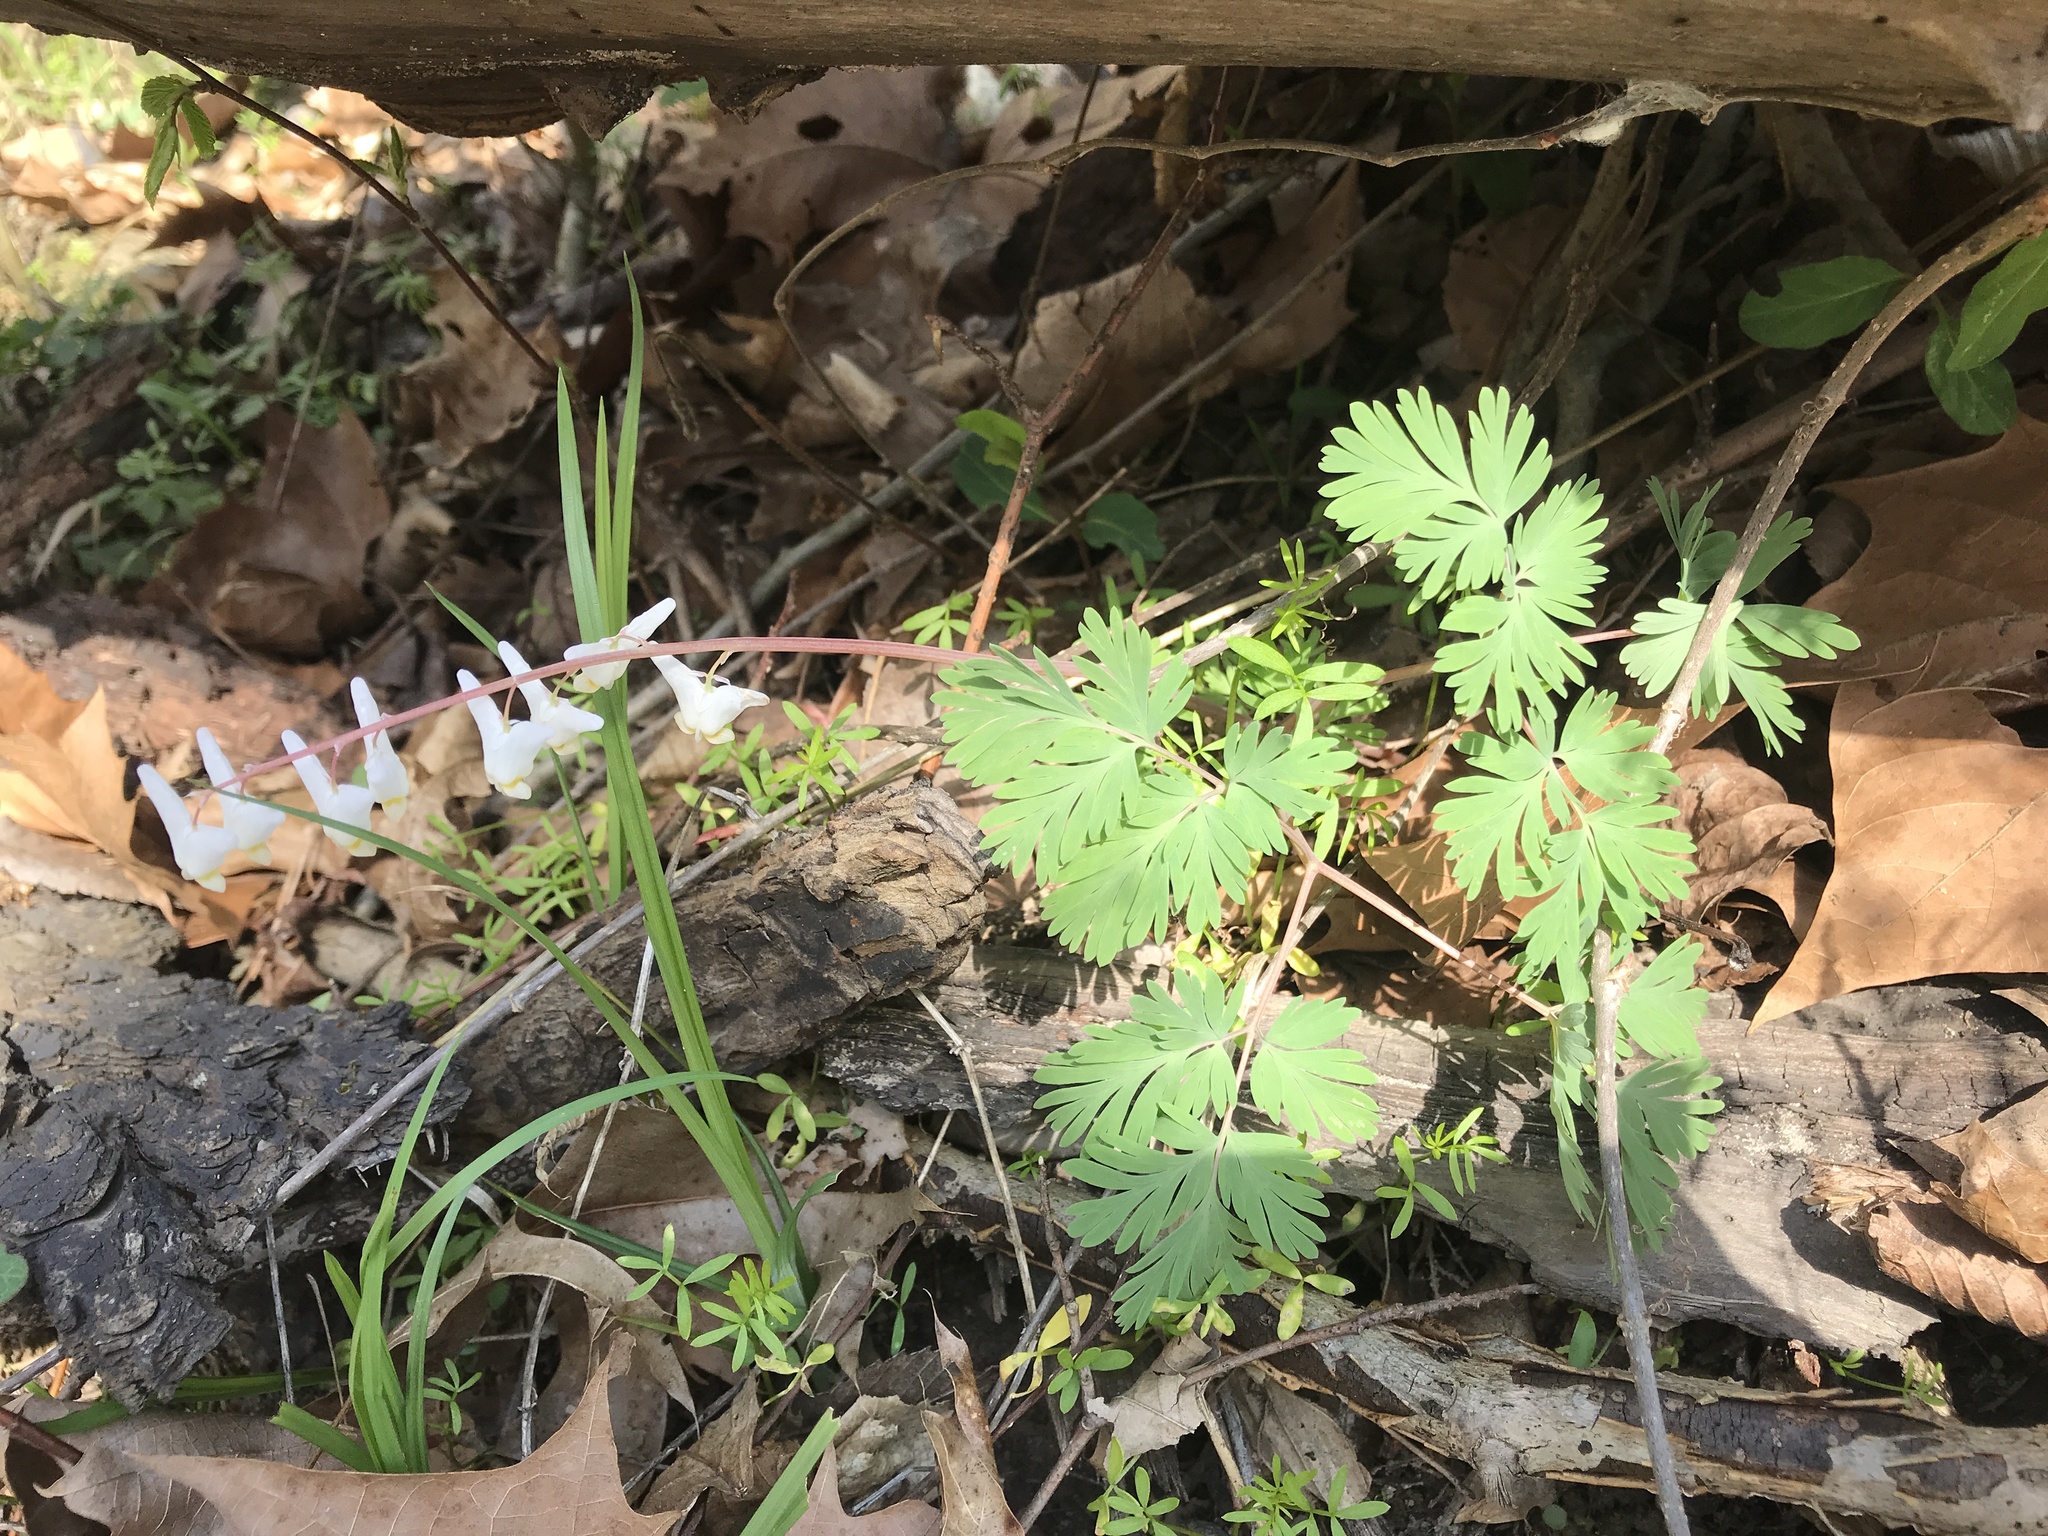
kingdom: Plantae
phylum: Tracheophyta
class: Magnoliopsida
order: Ranunculales
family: Papaveraceae
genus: Dicentra
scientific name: Dicentra cucullaria
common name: Dutchman's breeches
